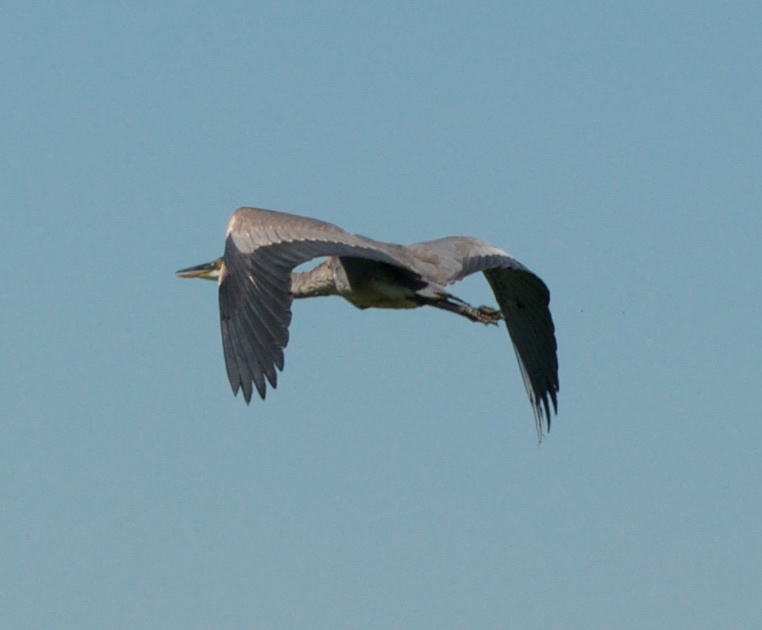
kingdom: Animalia
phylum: Chordata
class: Aves
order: Pelecaniformes
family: Ardeidae
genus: Ardea
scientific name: Ardea herodias
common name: Great blue heron
